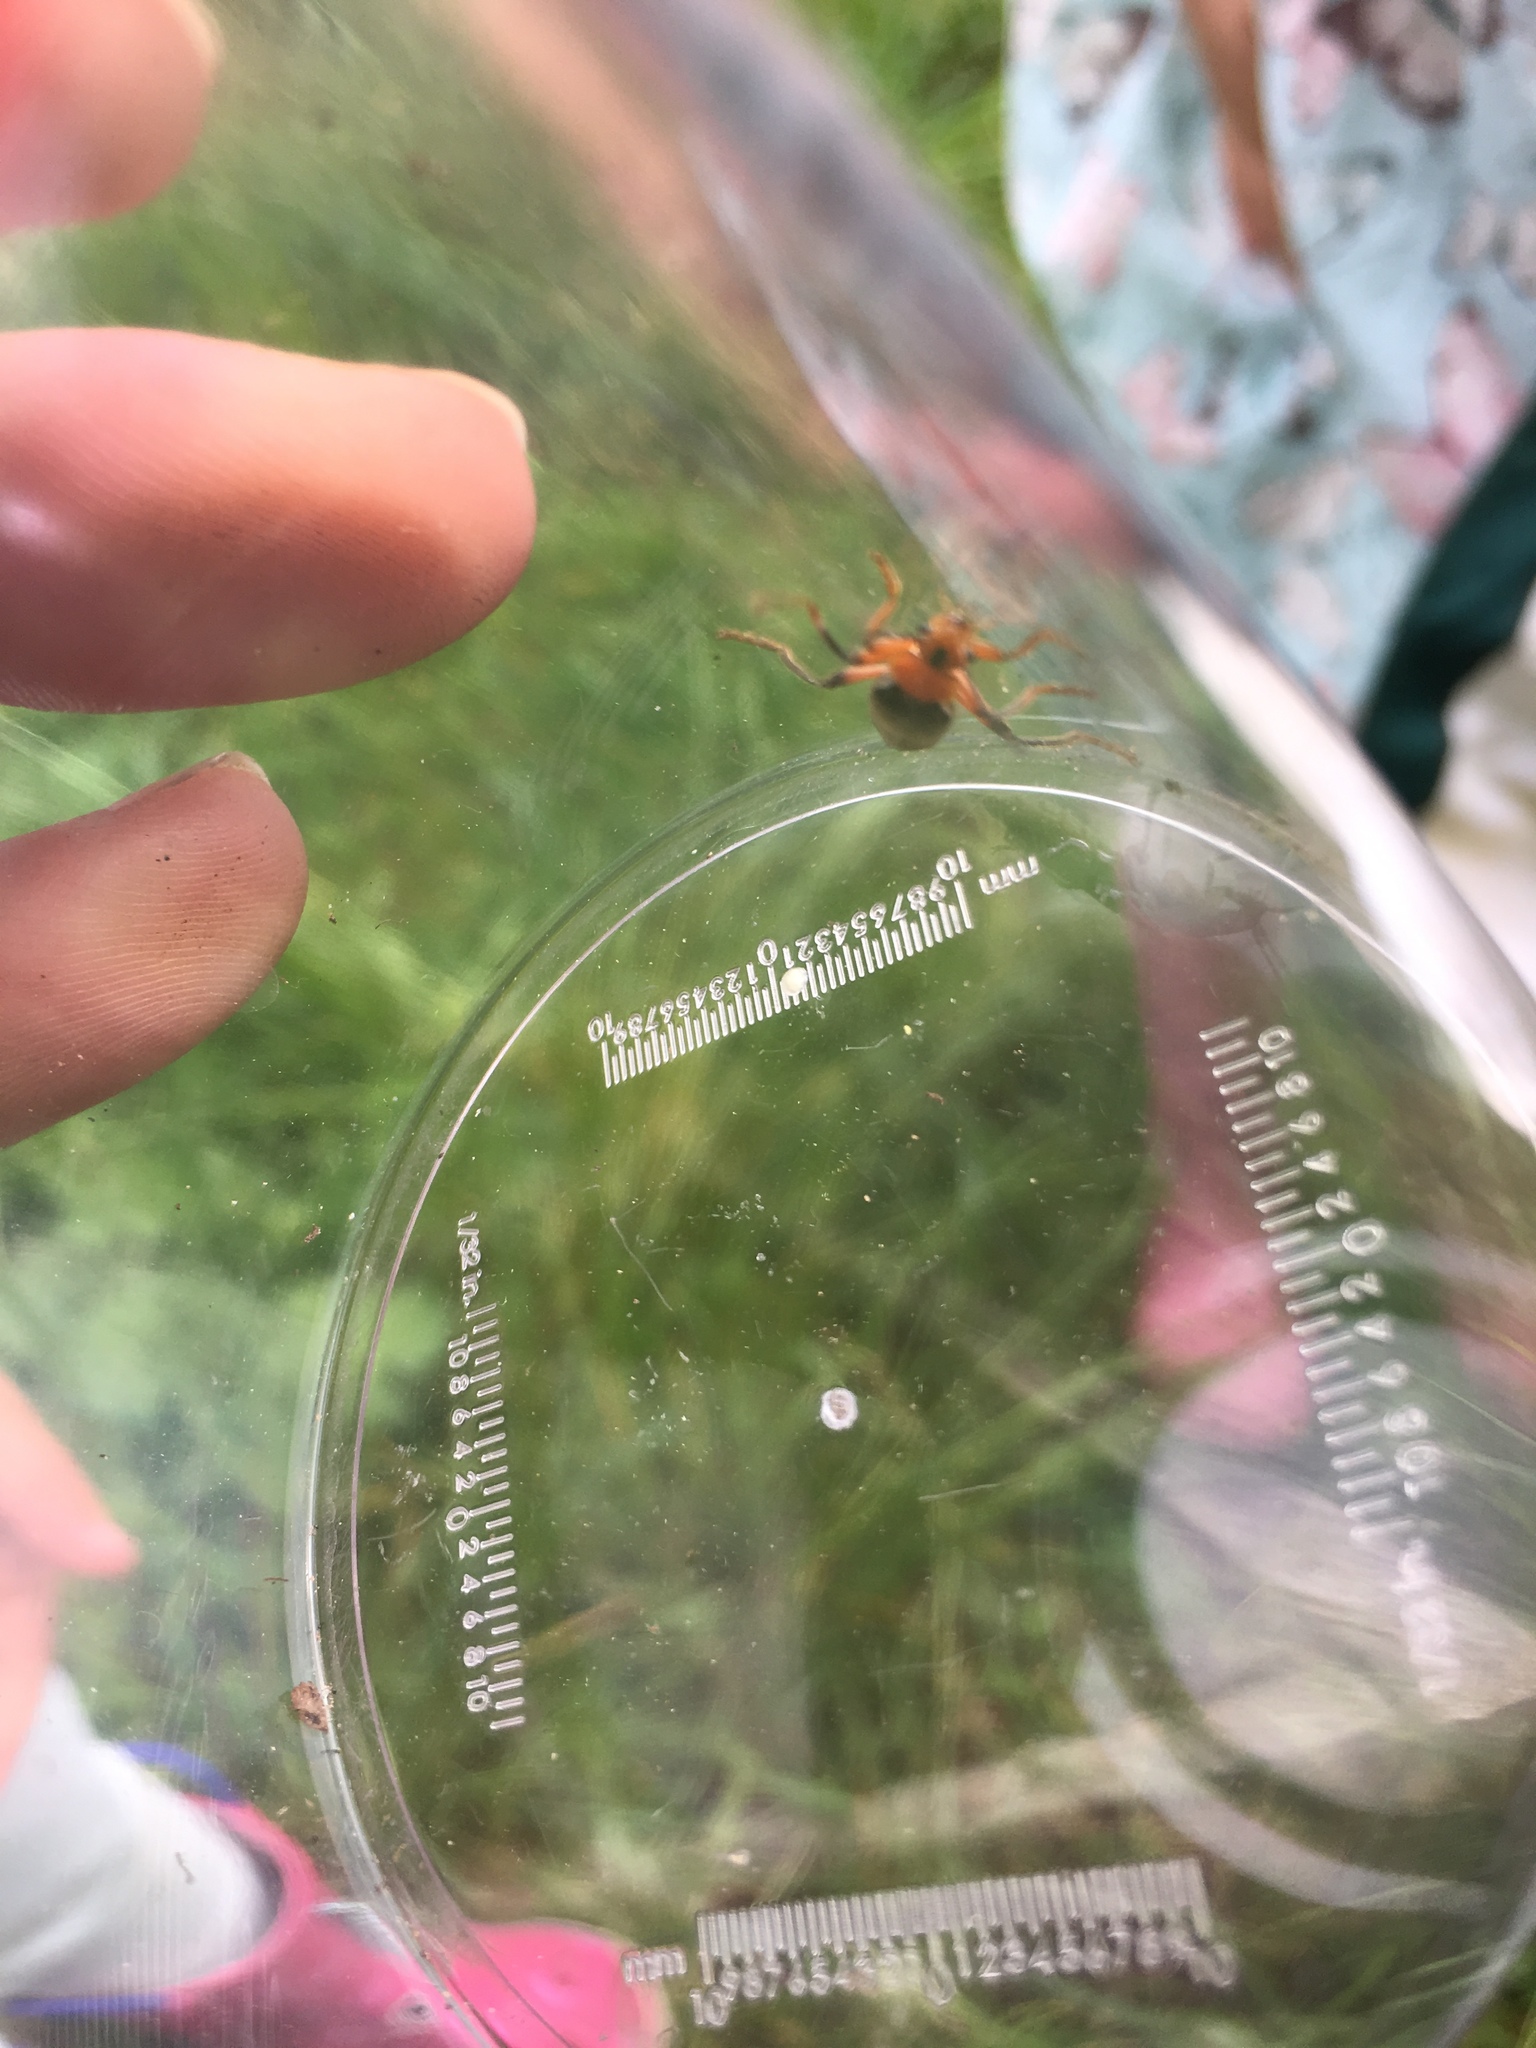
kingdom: Animalia
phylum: Arthropoda
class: Insecta
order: Coleoptera
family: Cantharidae
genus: Cantharis
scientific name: Cantharis livida
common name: Livid soldier beetle
